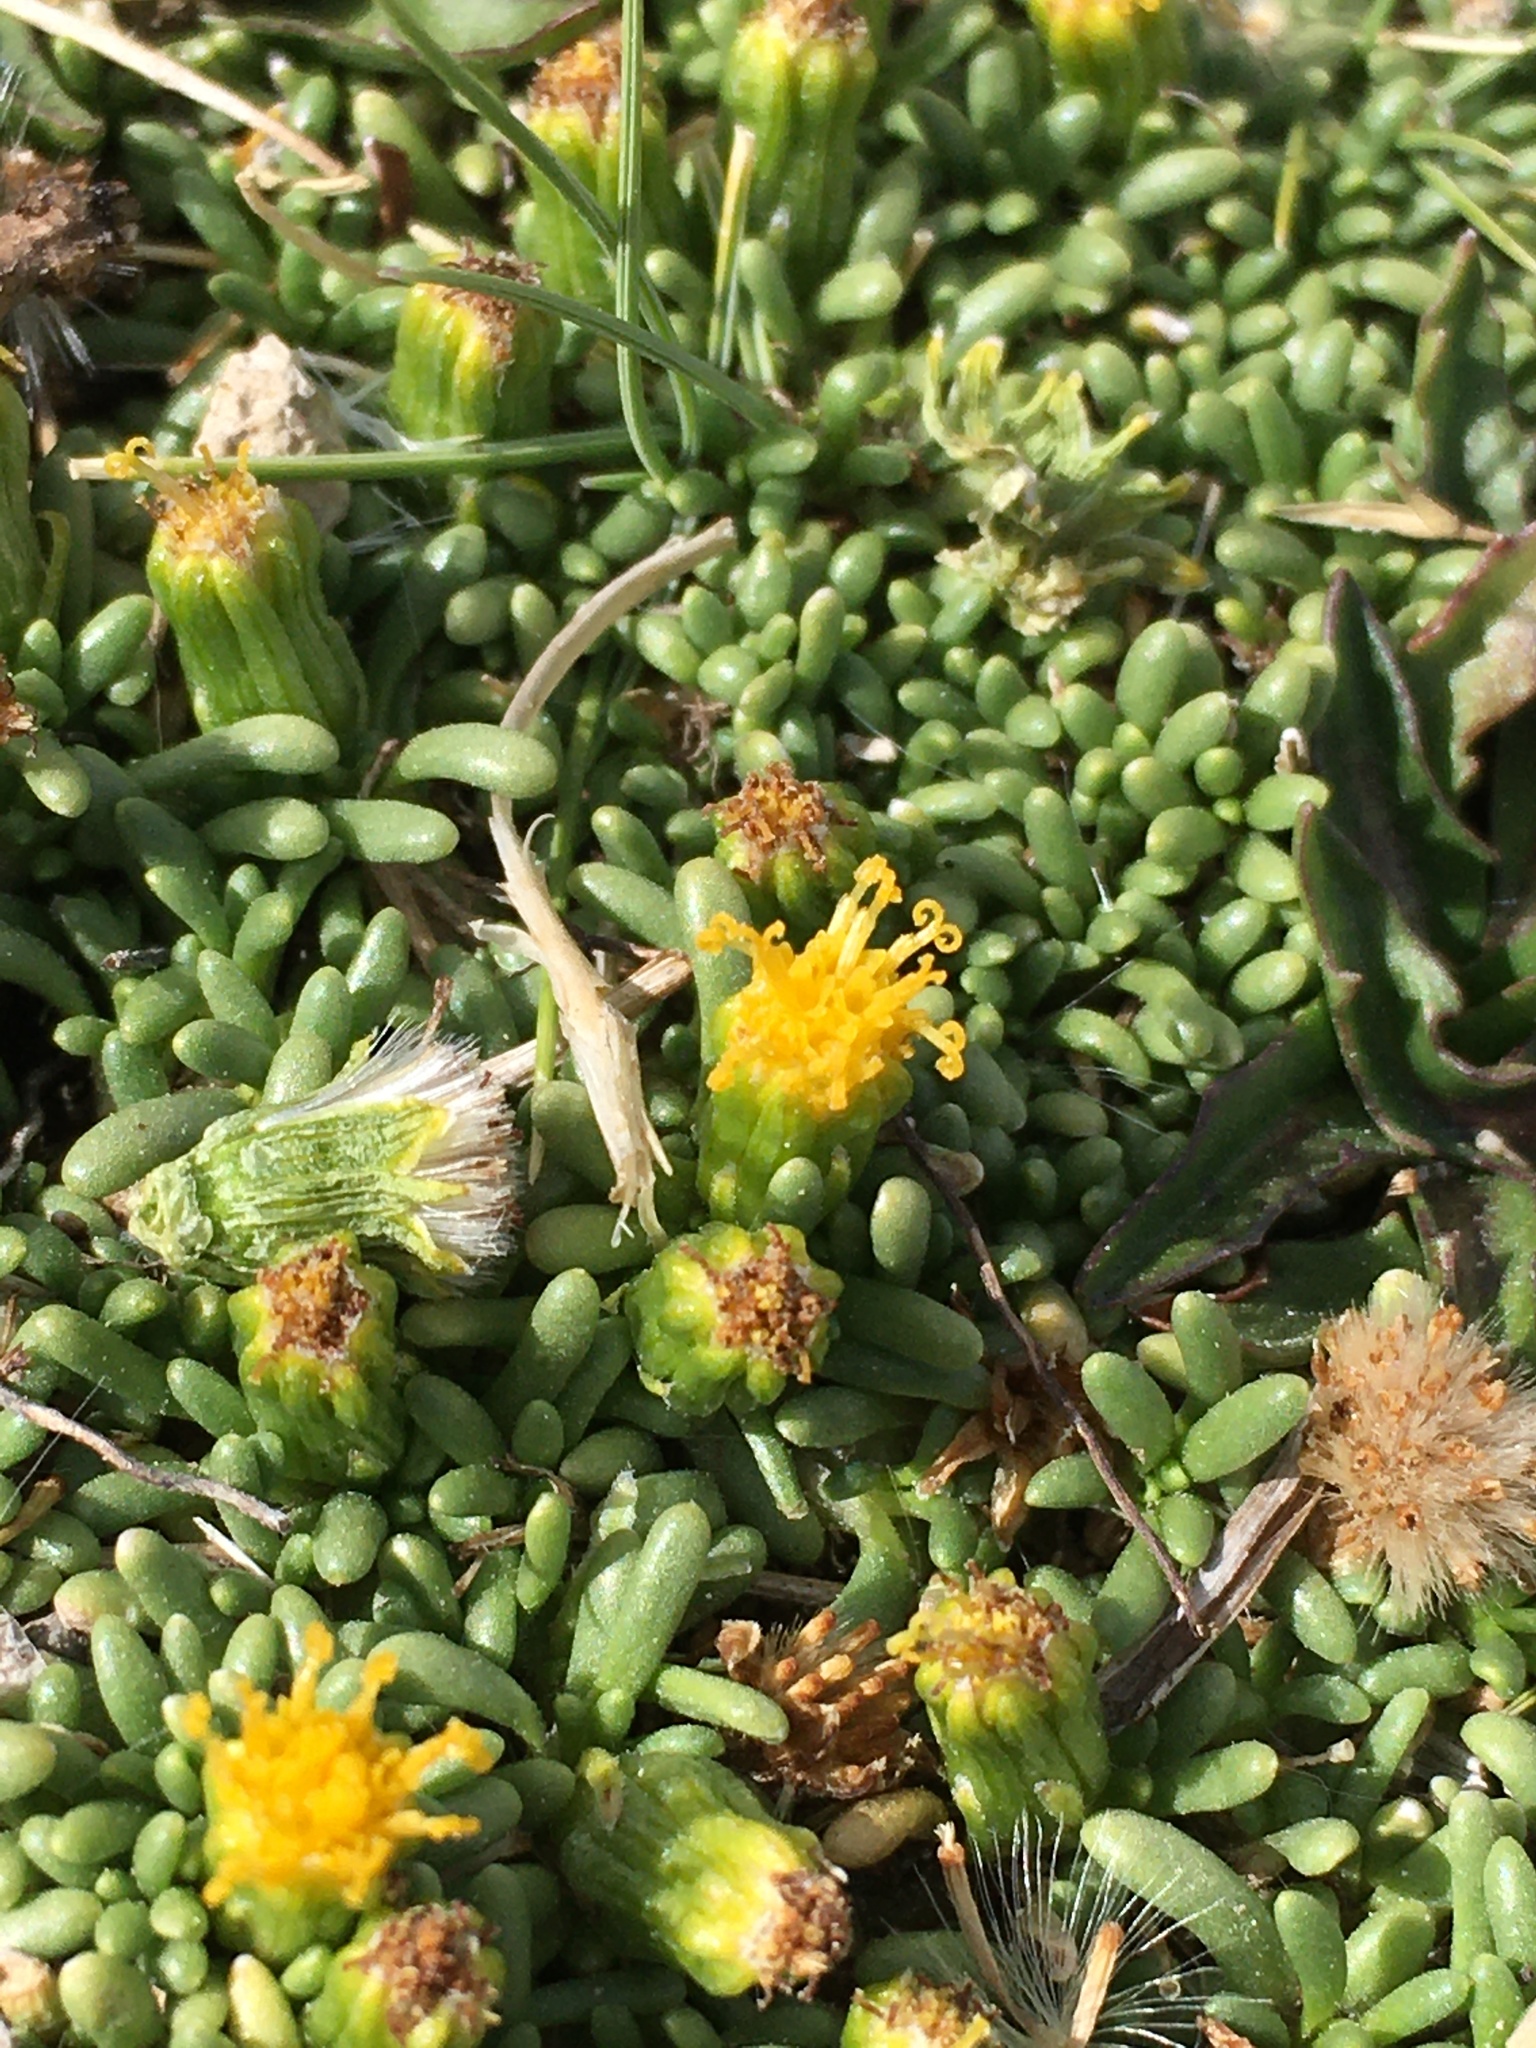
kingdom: Plantae
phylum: Tracheophyta
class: Magnoliopsida
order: Asterales
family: Asteraceae
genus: Senecio
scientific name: Senecio humillimus
